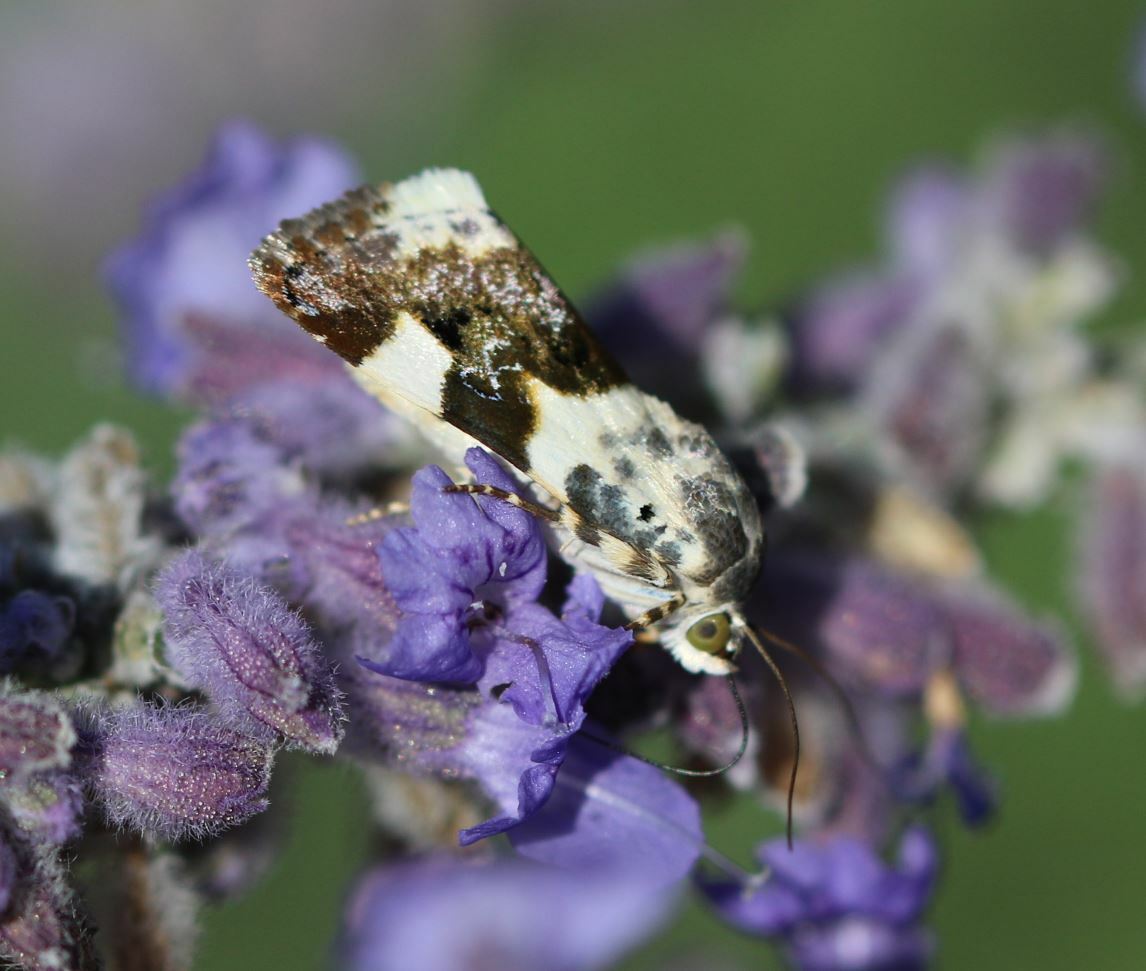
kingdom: Animalia
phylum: Arthropoda
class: Insecta
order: Lepidoptera
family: Noctuidae
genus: Acontia
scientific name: Acontia lucida
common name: Pale shoulder
